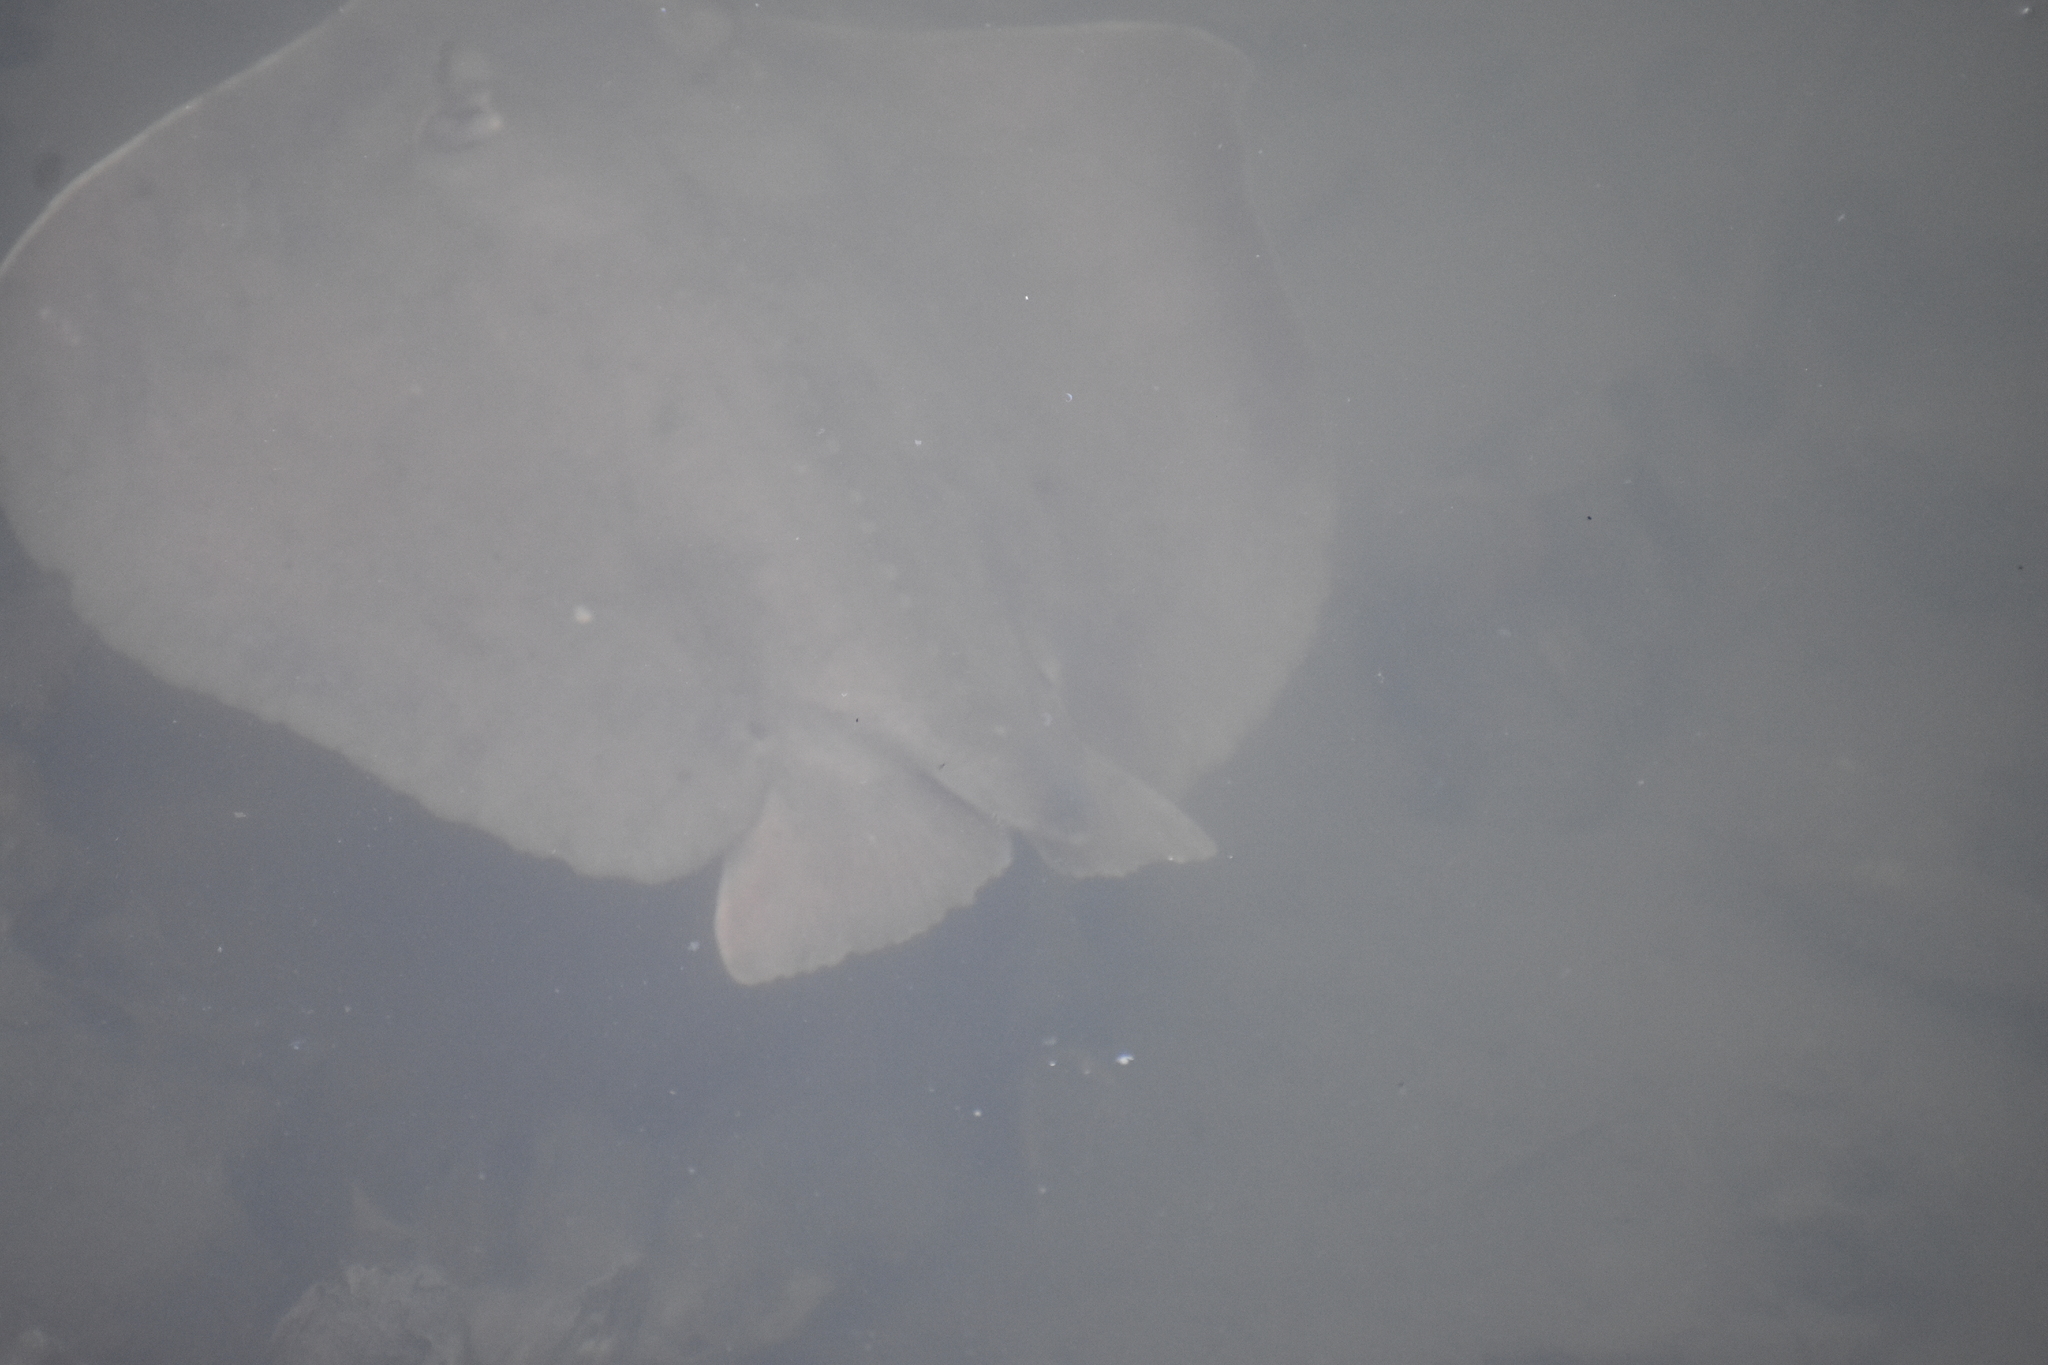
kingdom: Animalia
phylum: Chordata
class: Elasmobranchii
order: Myliobatiformes
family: Dasyatidae
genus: Hypanus
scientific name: Hypanus sabinus
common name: Atlantic stingray
